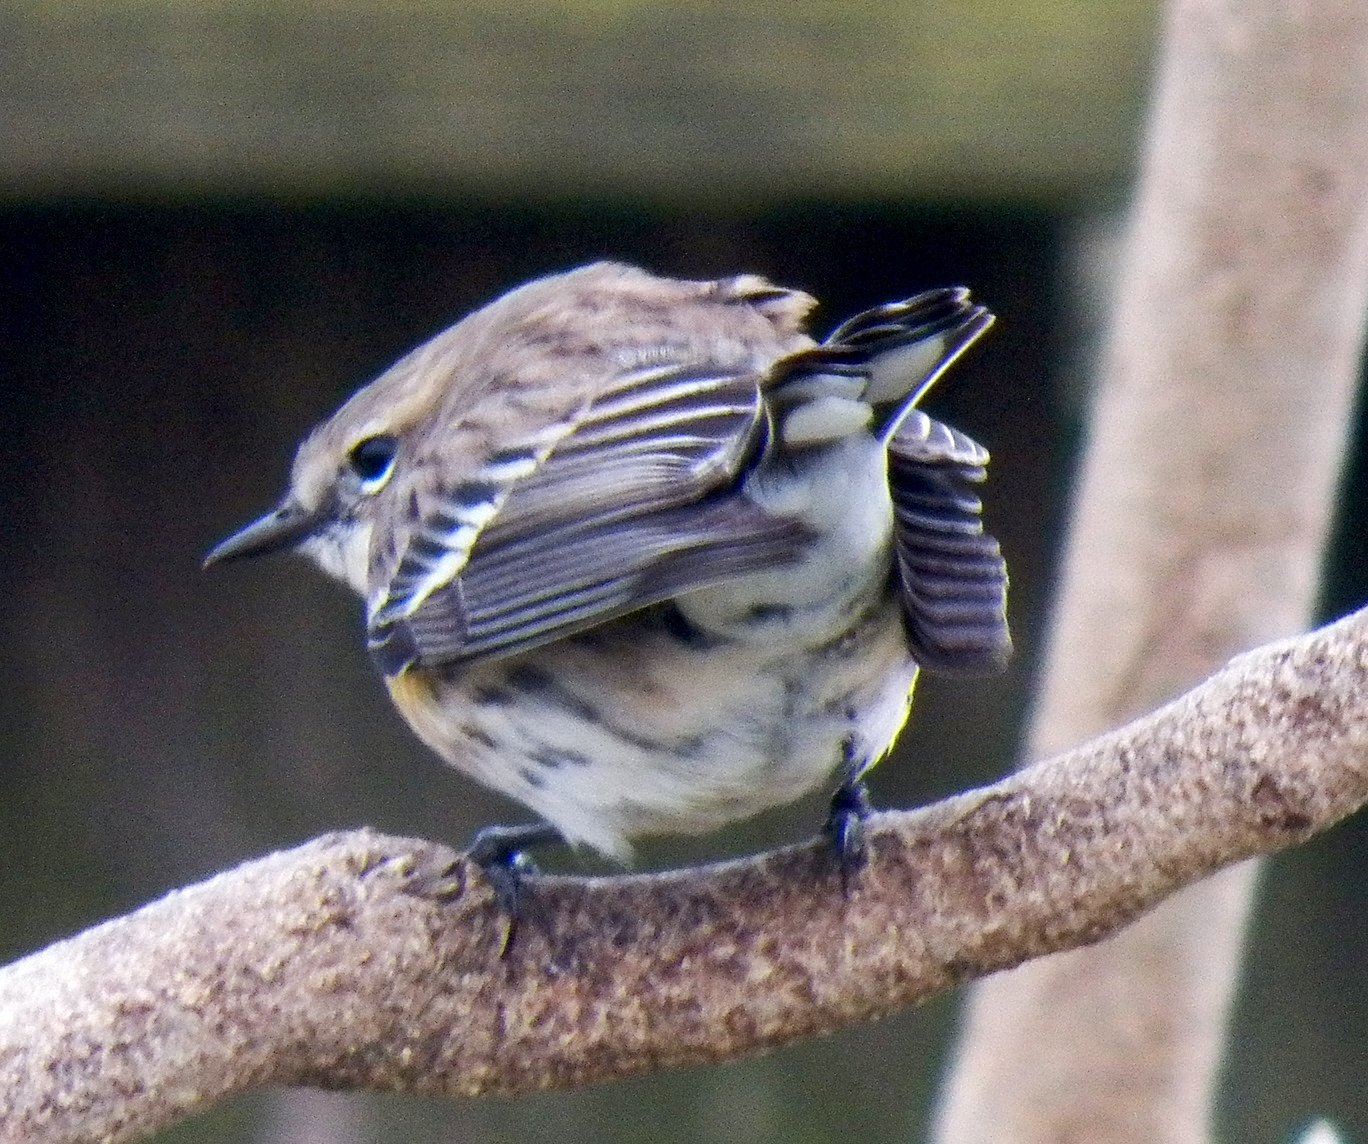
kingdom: Animalia
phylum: Chordata
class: Aves
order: Passeriformes
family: Parulidae
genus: Setophaga
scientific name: Setophaga coronata
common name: Myrtle warbler
